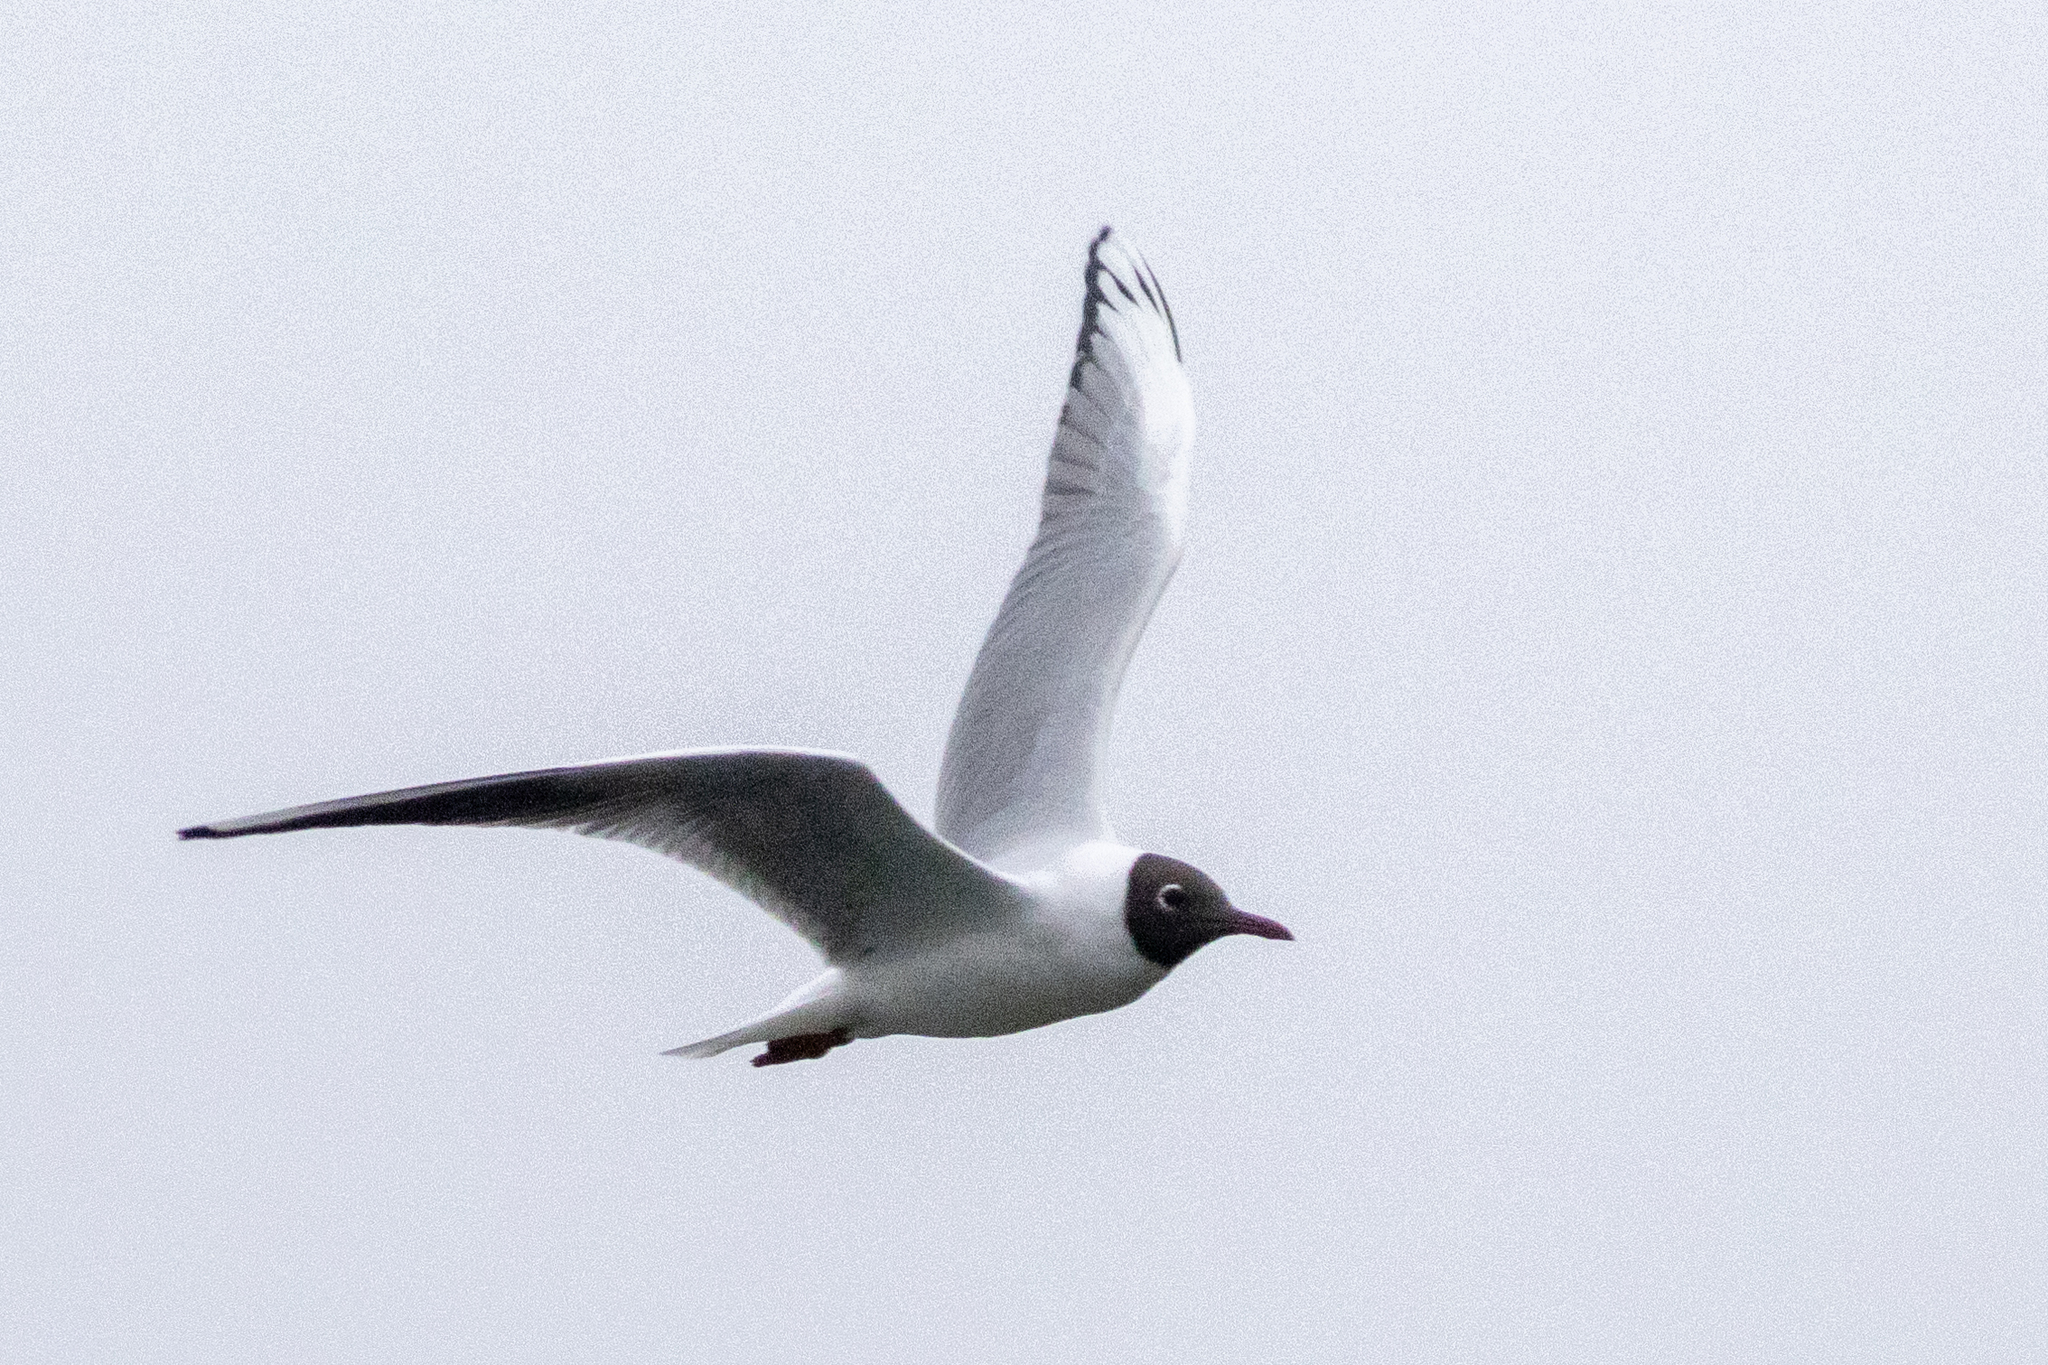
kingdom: Animalia
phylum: Chordata
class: Aves
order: Charadriiformes
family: Laridae
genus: Chroicocephalus
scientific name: Chroicocephalus ridibundus
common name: Black-headed gull
